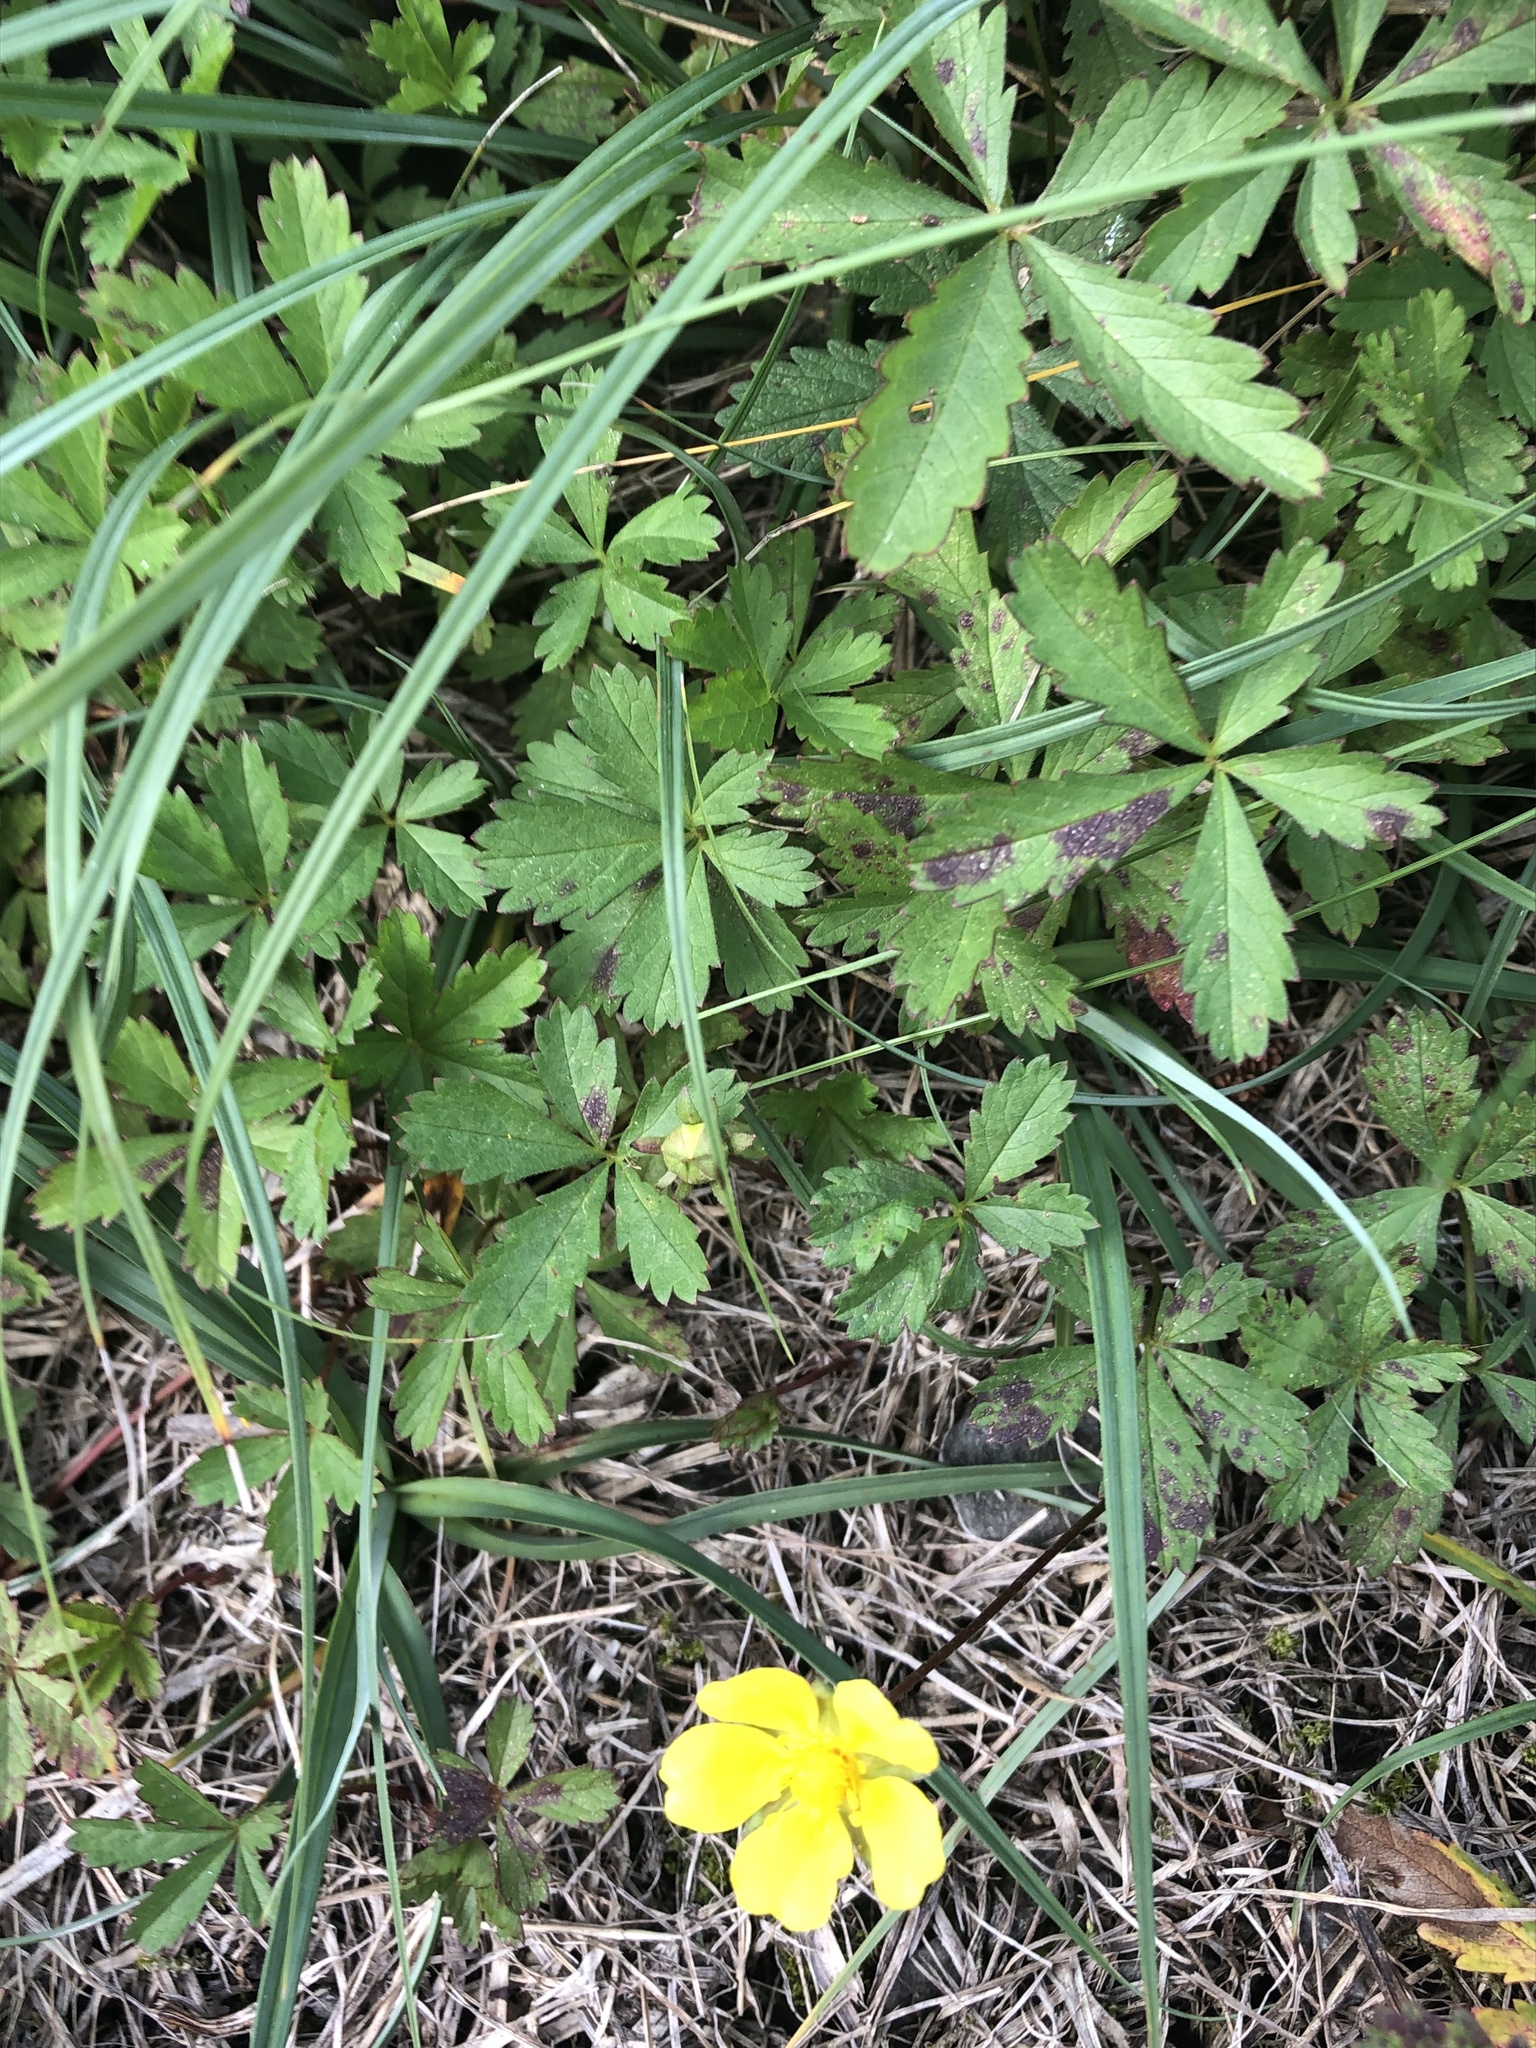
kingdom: Plantae
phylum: Tracheophyta
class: Magnoliopsida
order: Rosales
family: Rosaceae
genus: Potentilla
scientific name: Potentilla reptans
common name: Creeping cinquefoil
